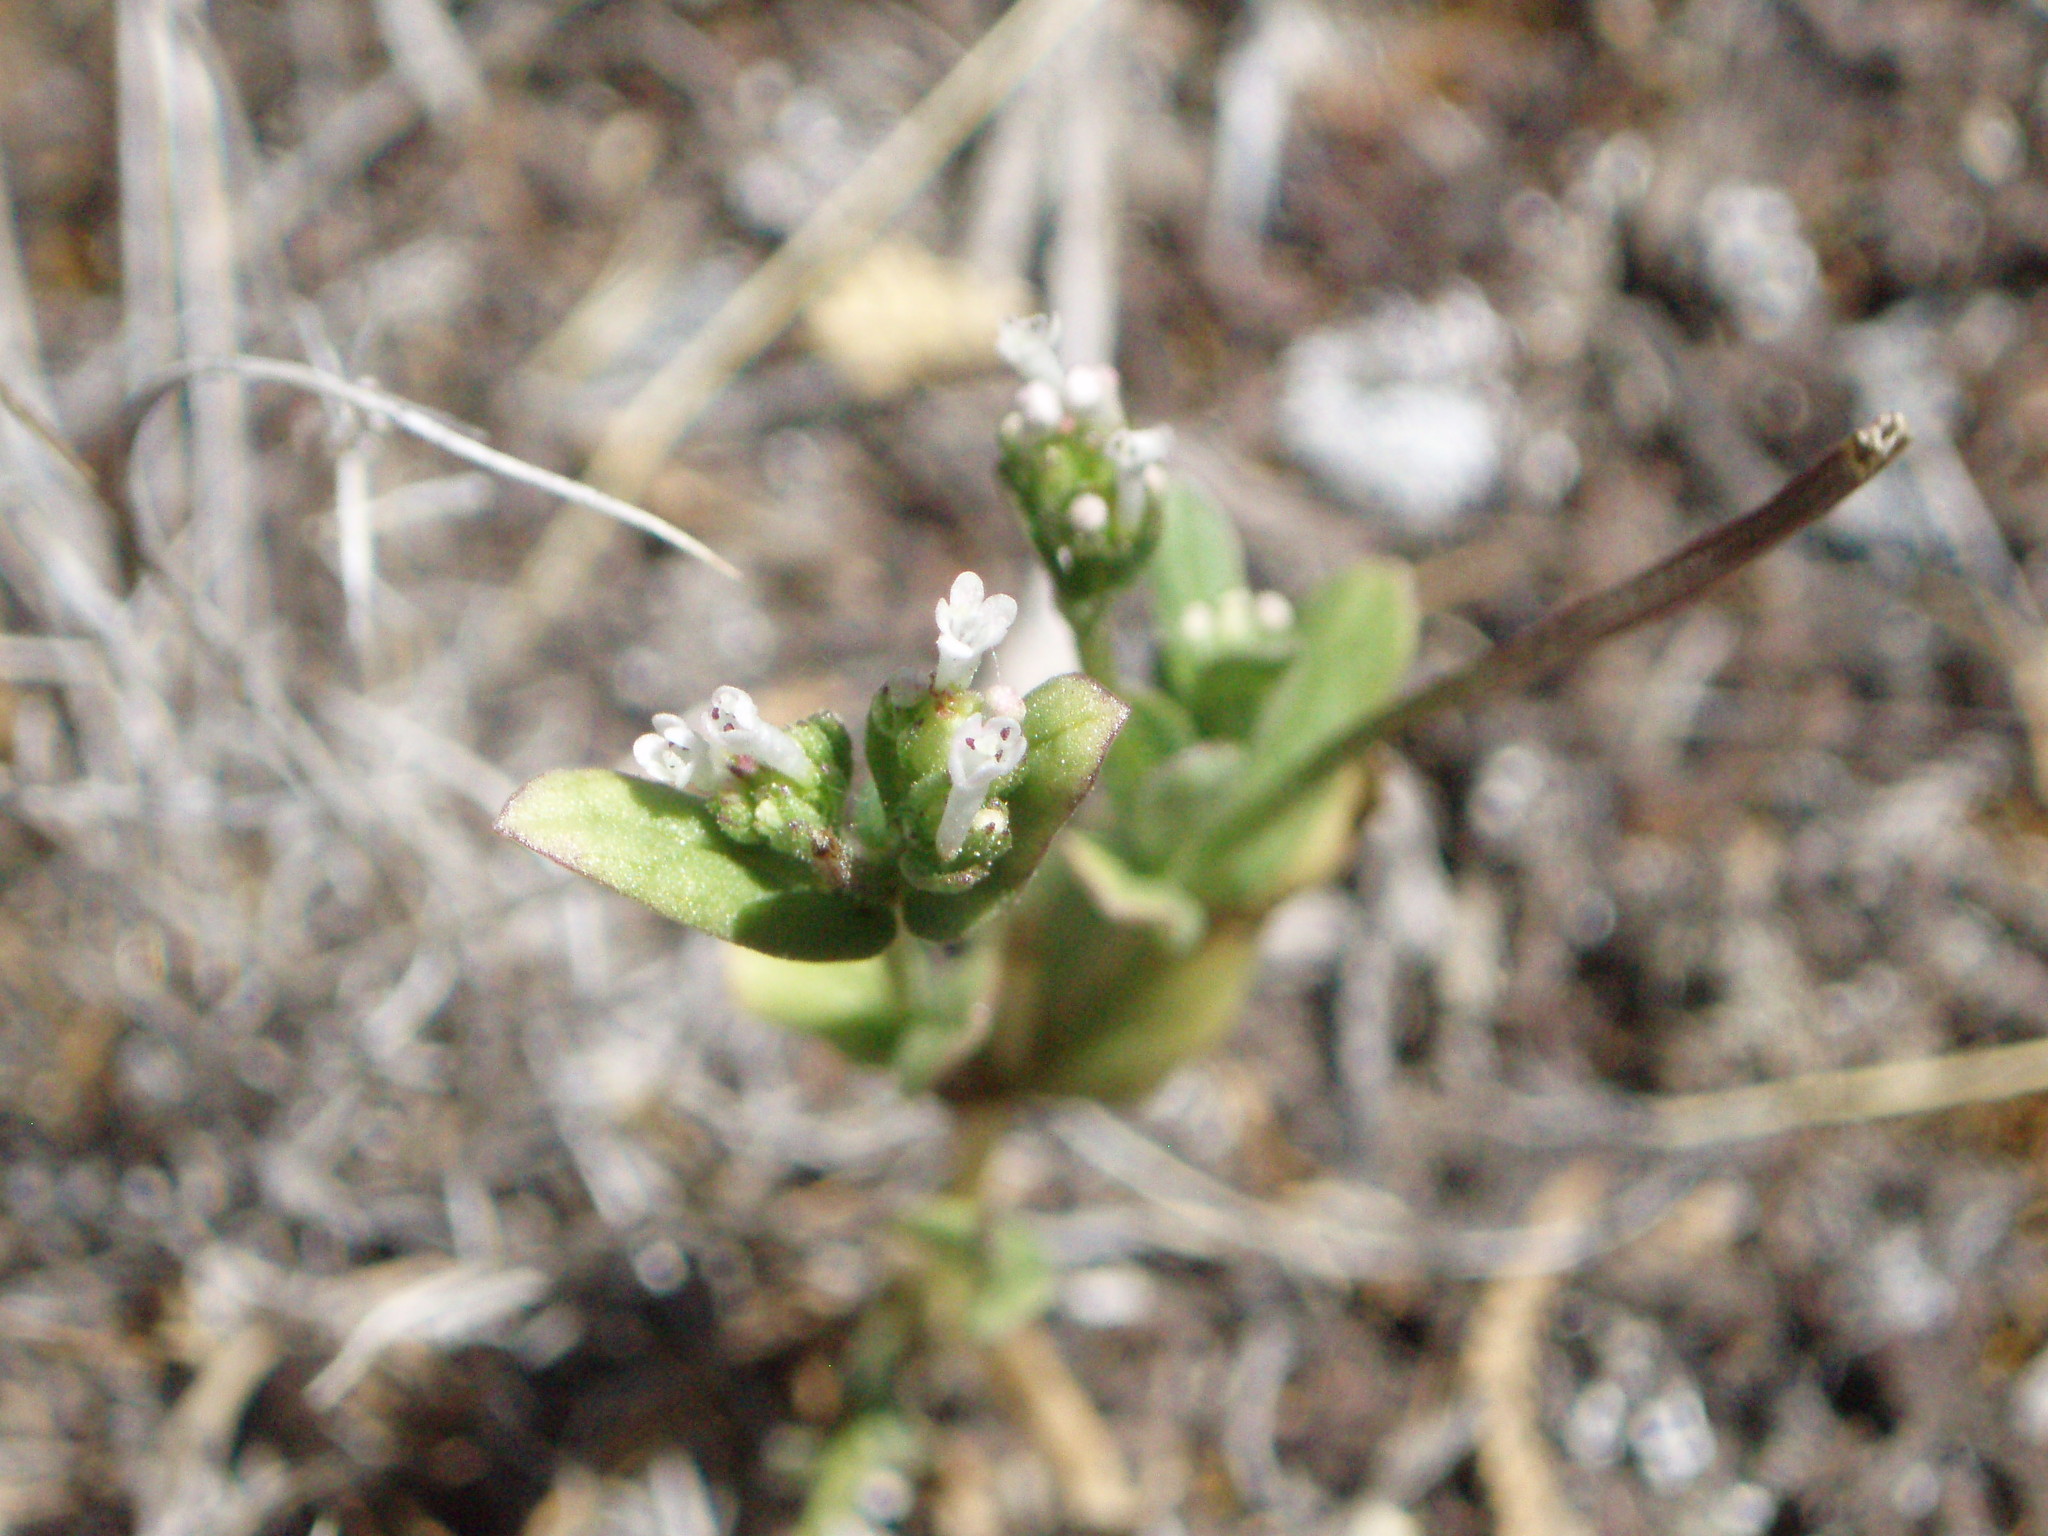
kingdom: Plantae
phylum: Tracheophyta
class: Magnoliopsida
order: Dipsacales
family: Caprifoliaceae
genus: Plectritis
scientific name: Plectritis macroptera
